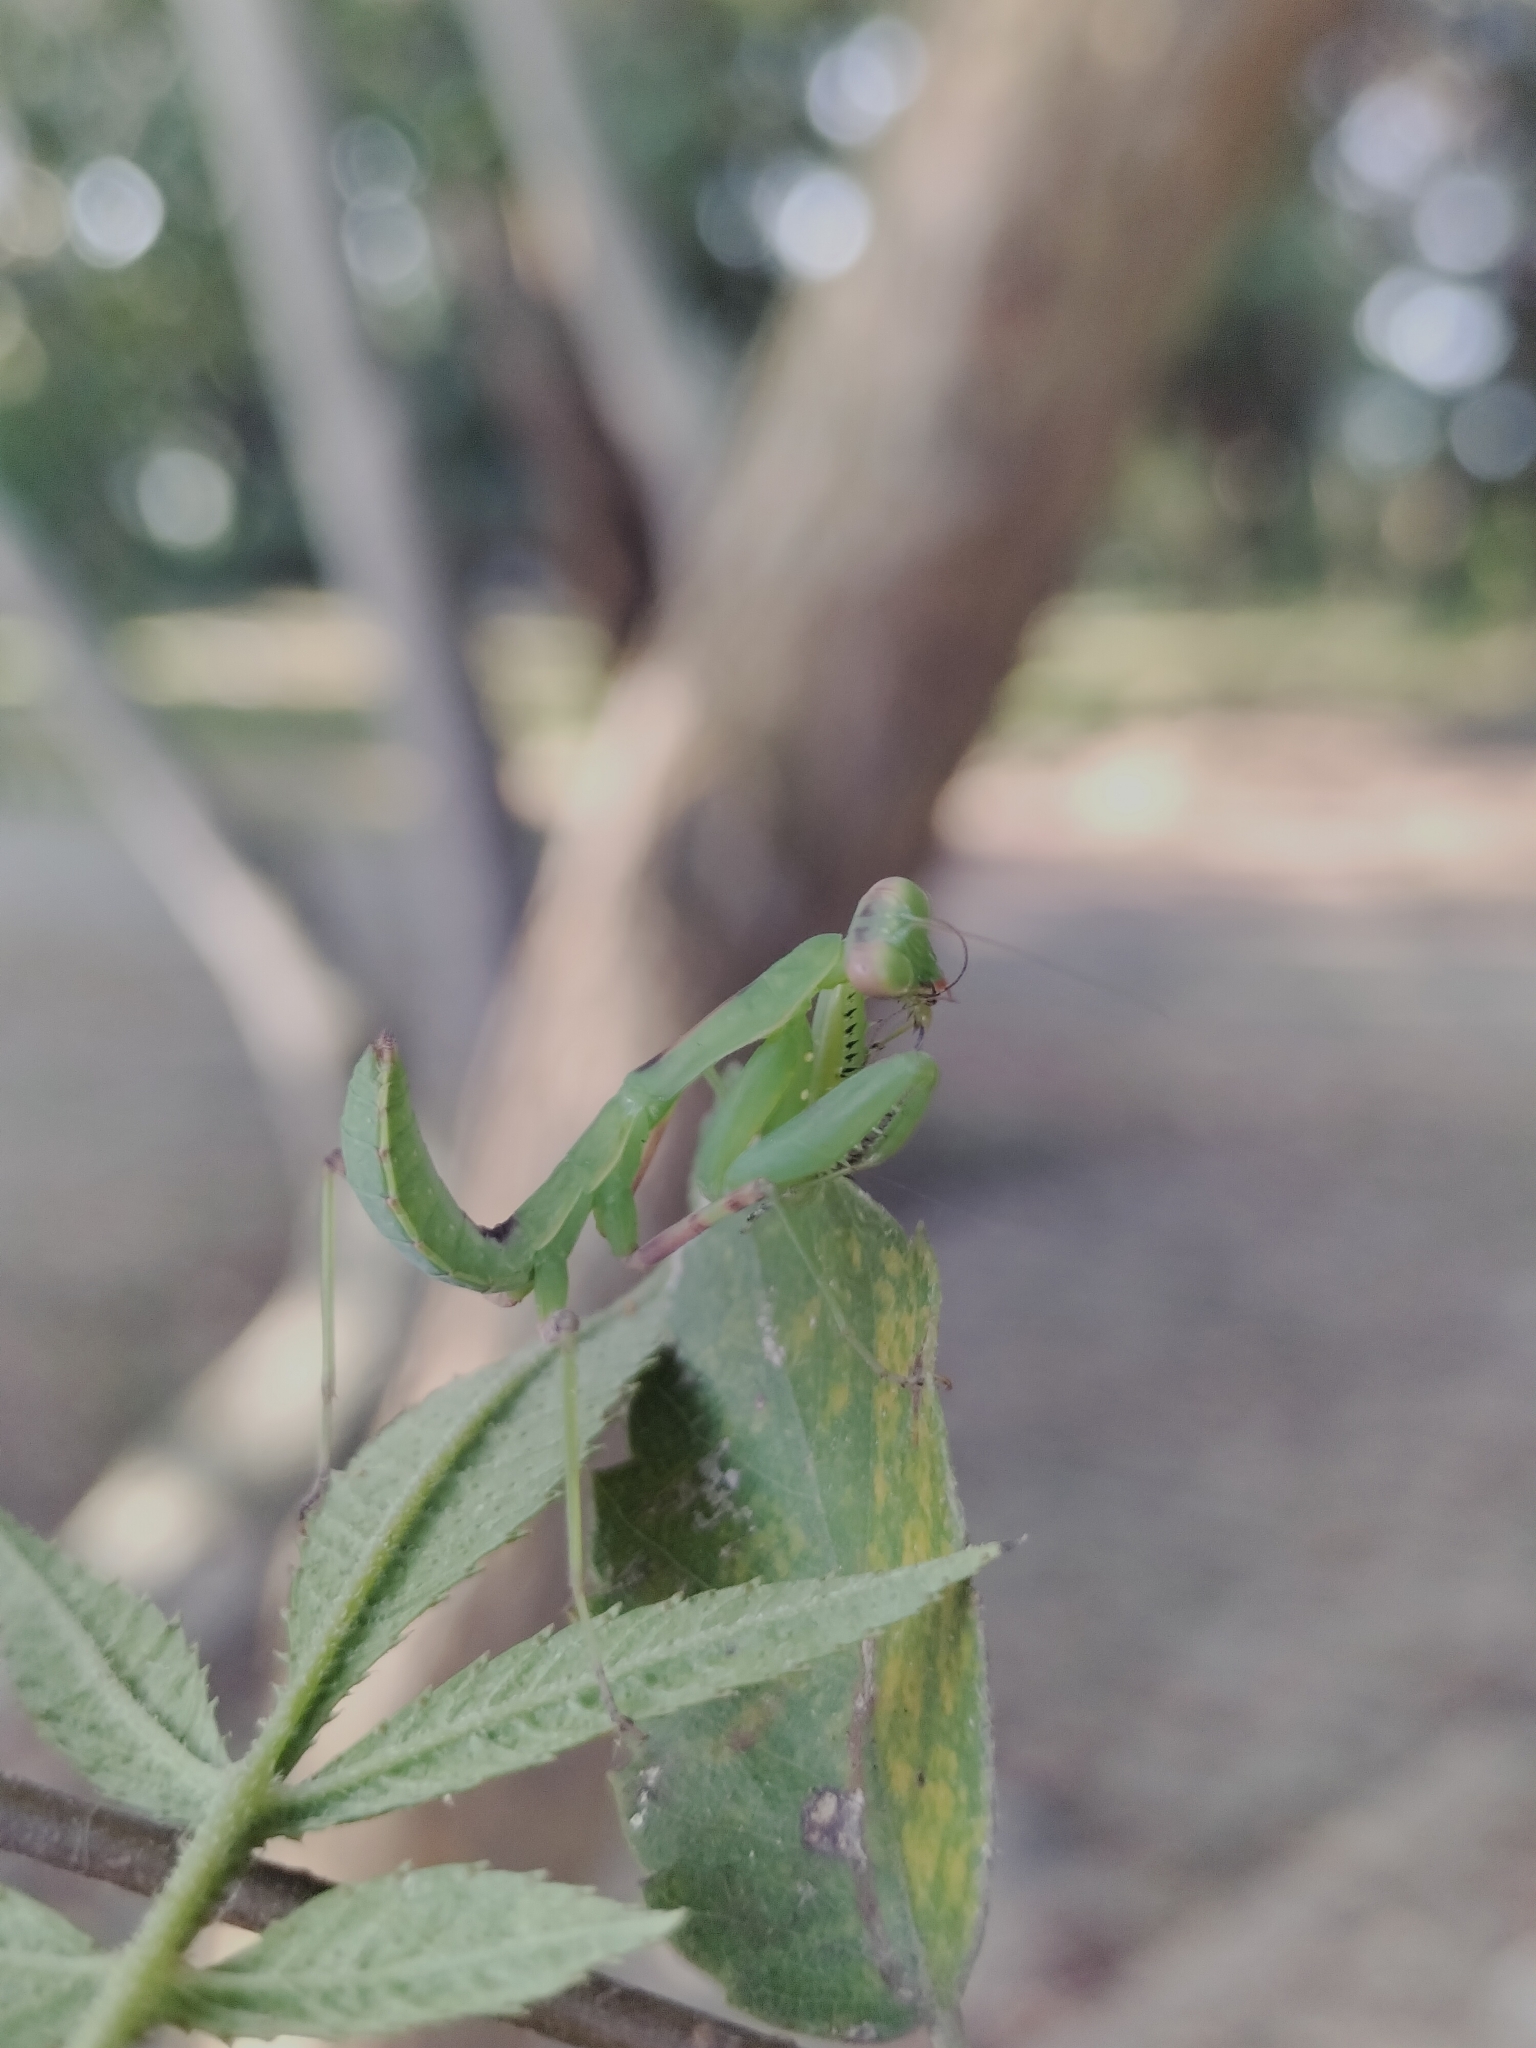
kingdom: Animalia
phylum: Arthropoda
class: Insecta
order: Mantodea
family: Mantidae
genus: Hierodula
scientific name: Hierodula patellifera
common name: Asian mantis
